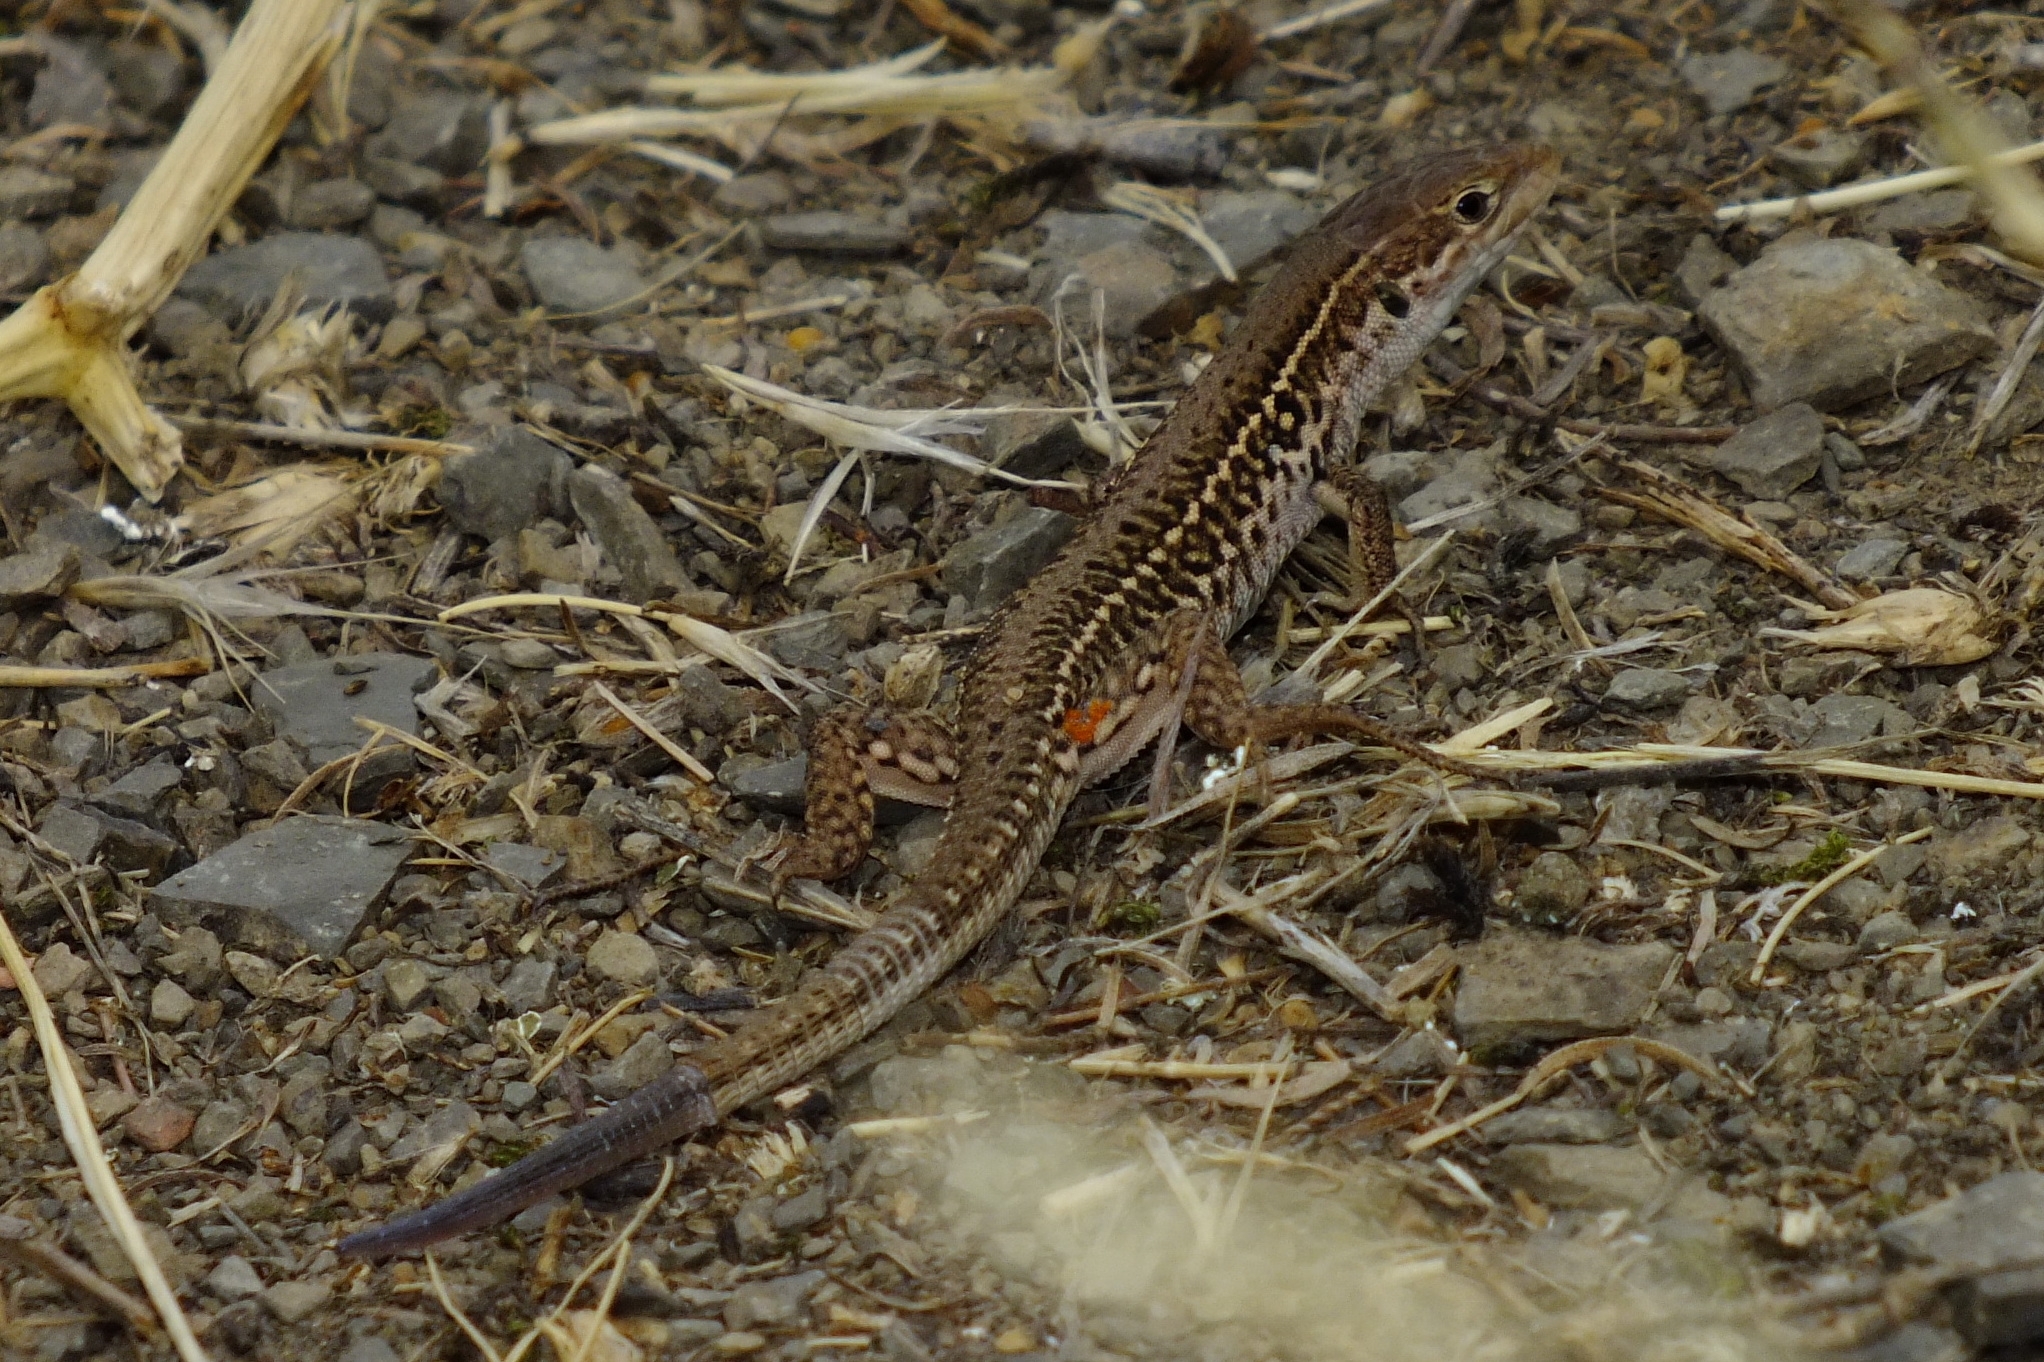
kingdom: Animalia
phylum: Chordata
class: Squamata
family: Lacertidae
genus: Podarcis
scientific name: Podarcis tauricus
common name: Balkan wall lizard
